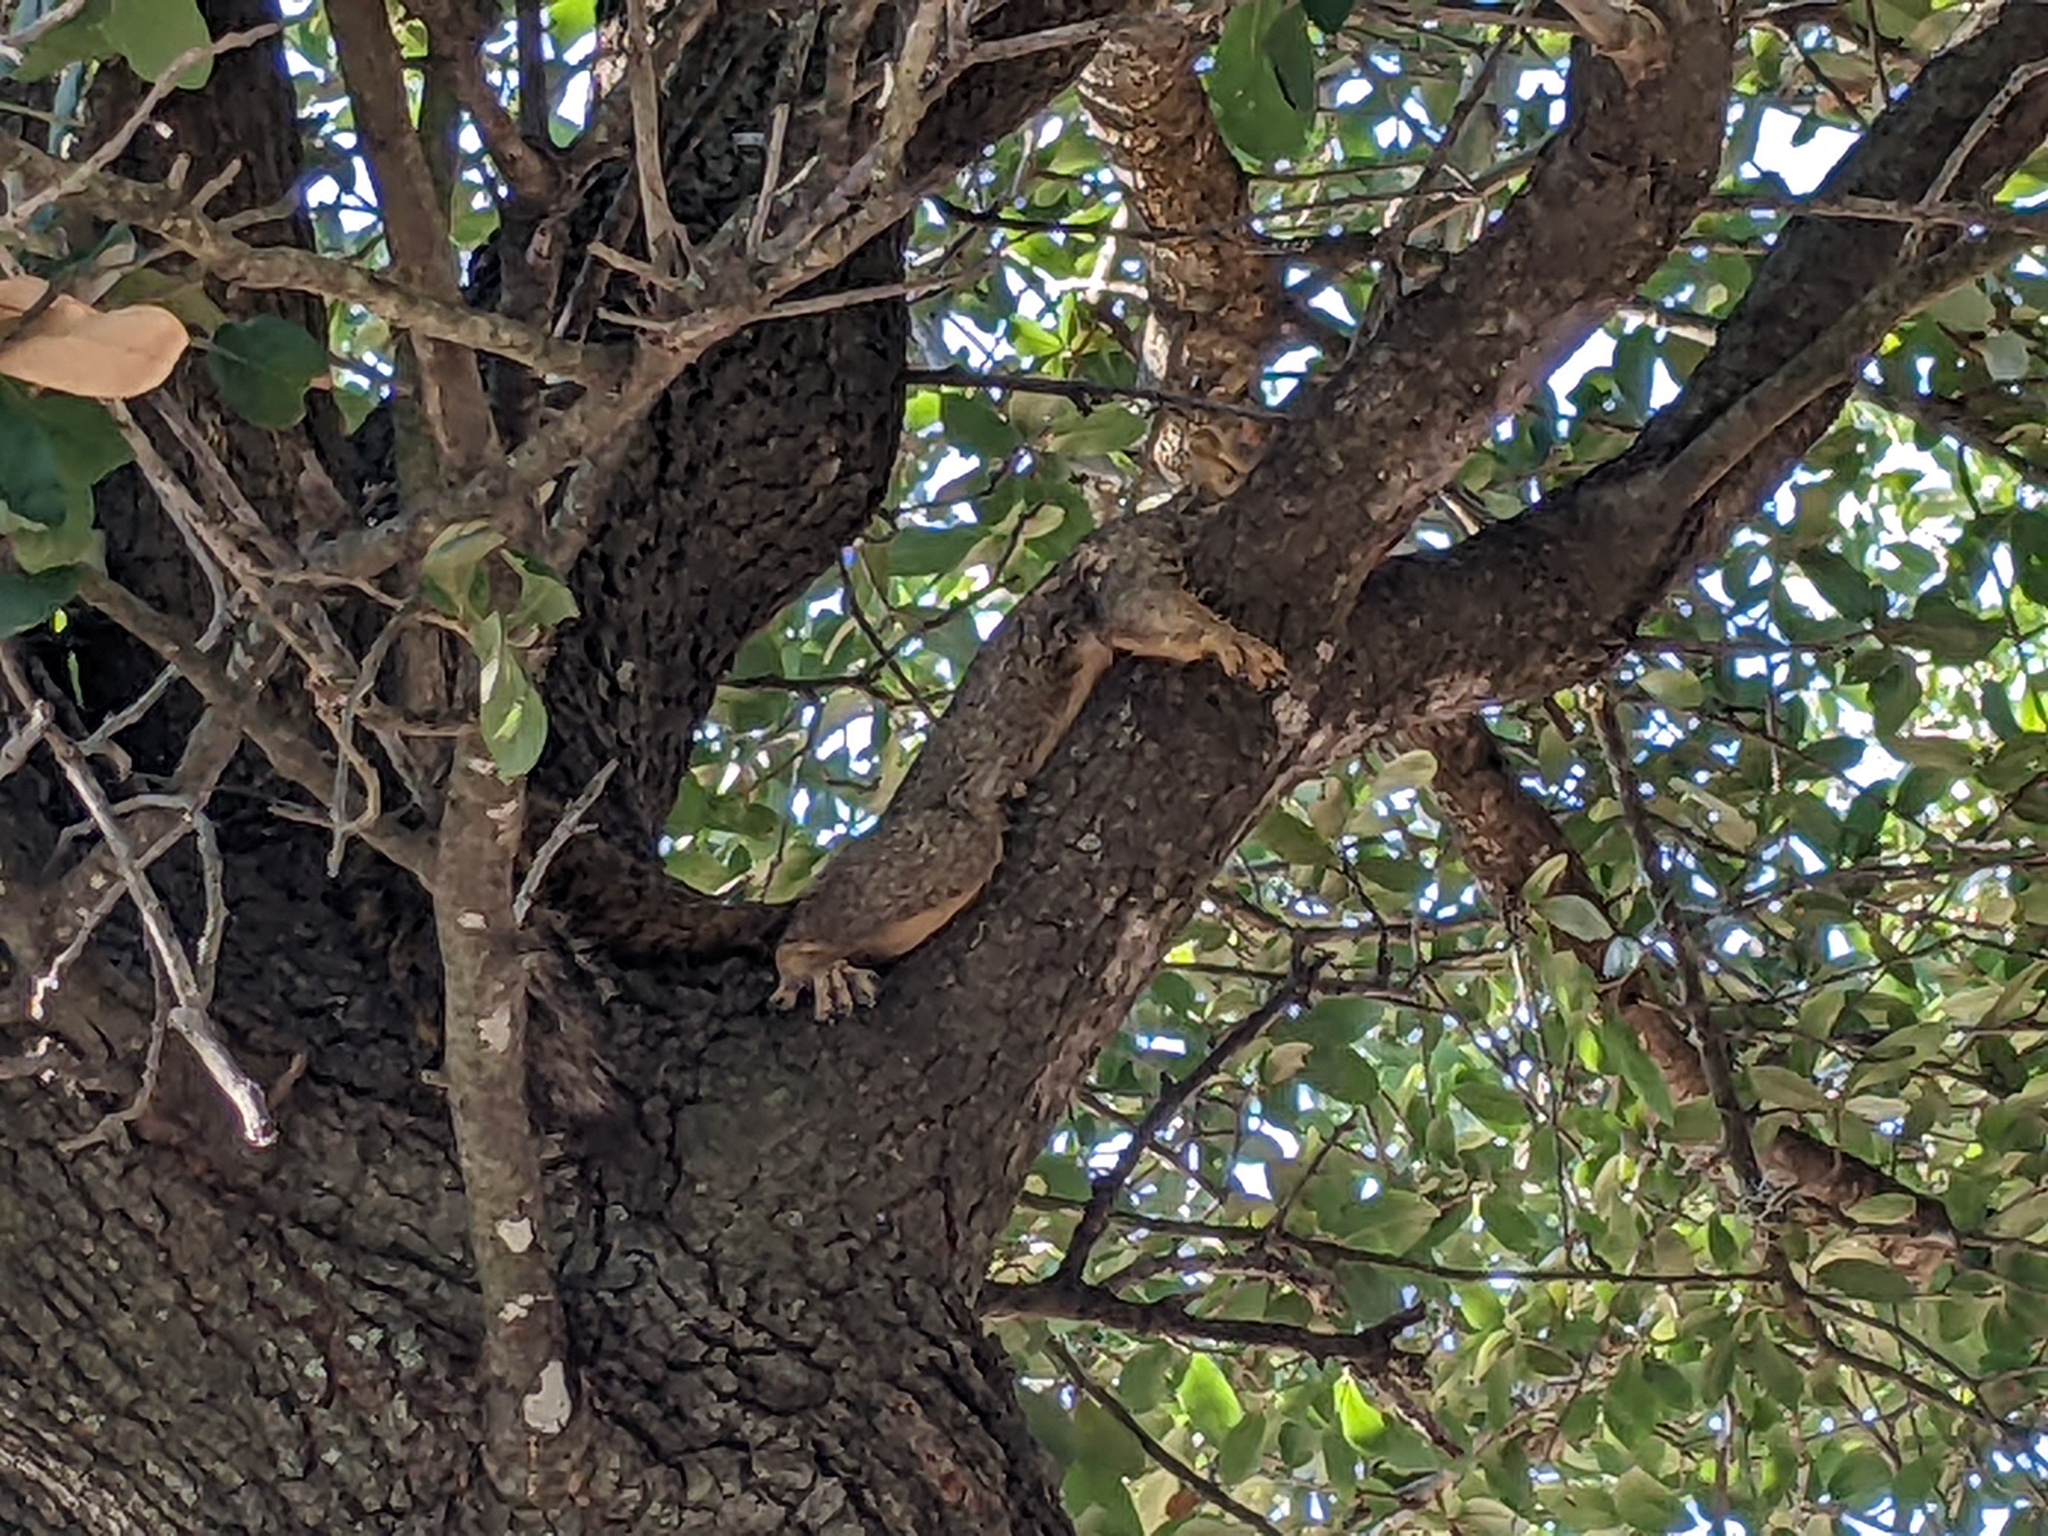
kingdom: Animalia
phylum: Chordata
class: Mammalia
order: Rodentia
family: Sciuridae
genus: Sciurus
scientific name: Sciurus niger
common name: Fox squirrel
